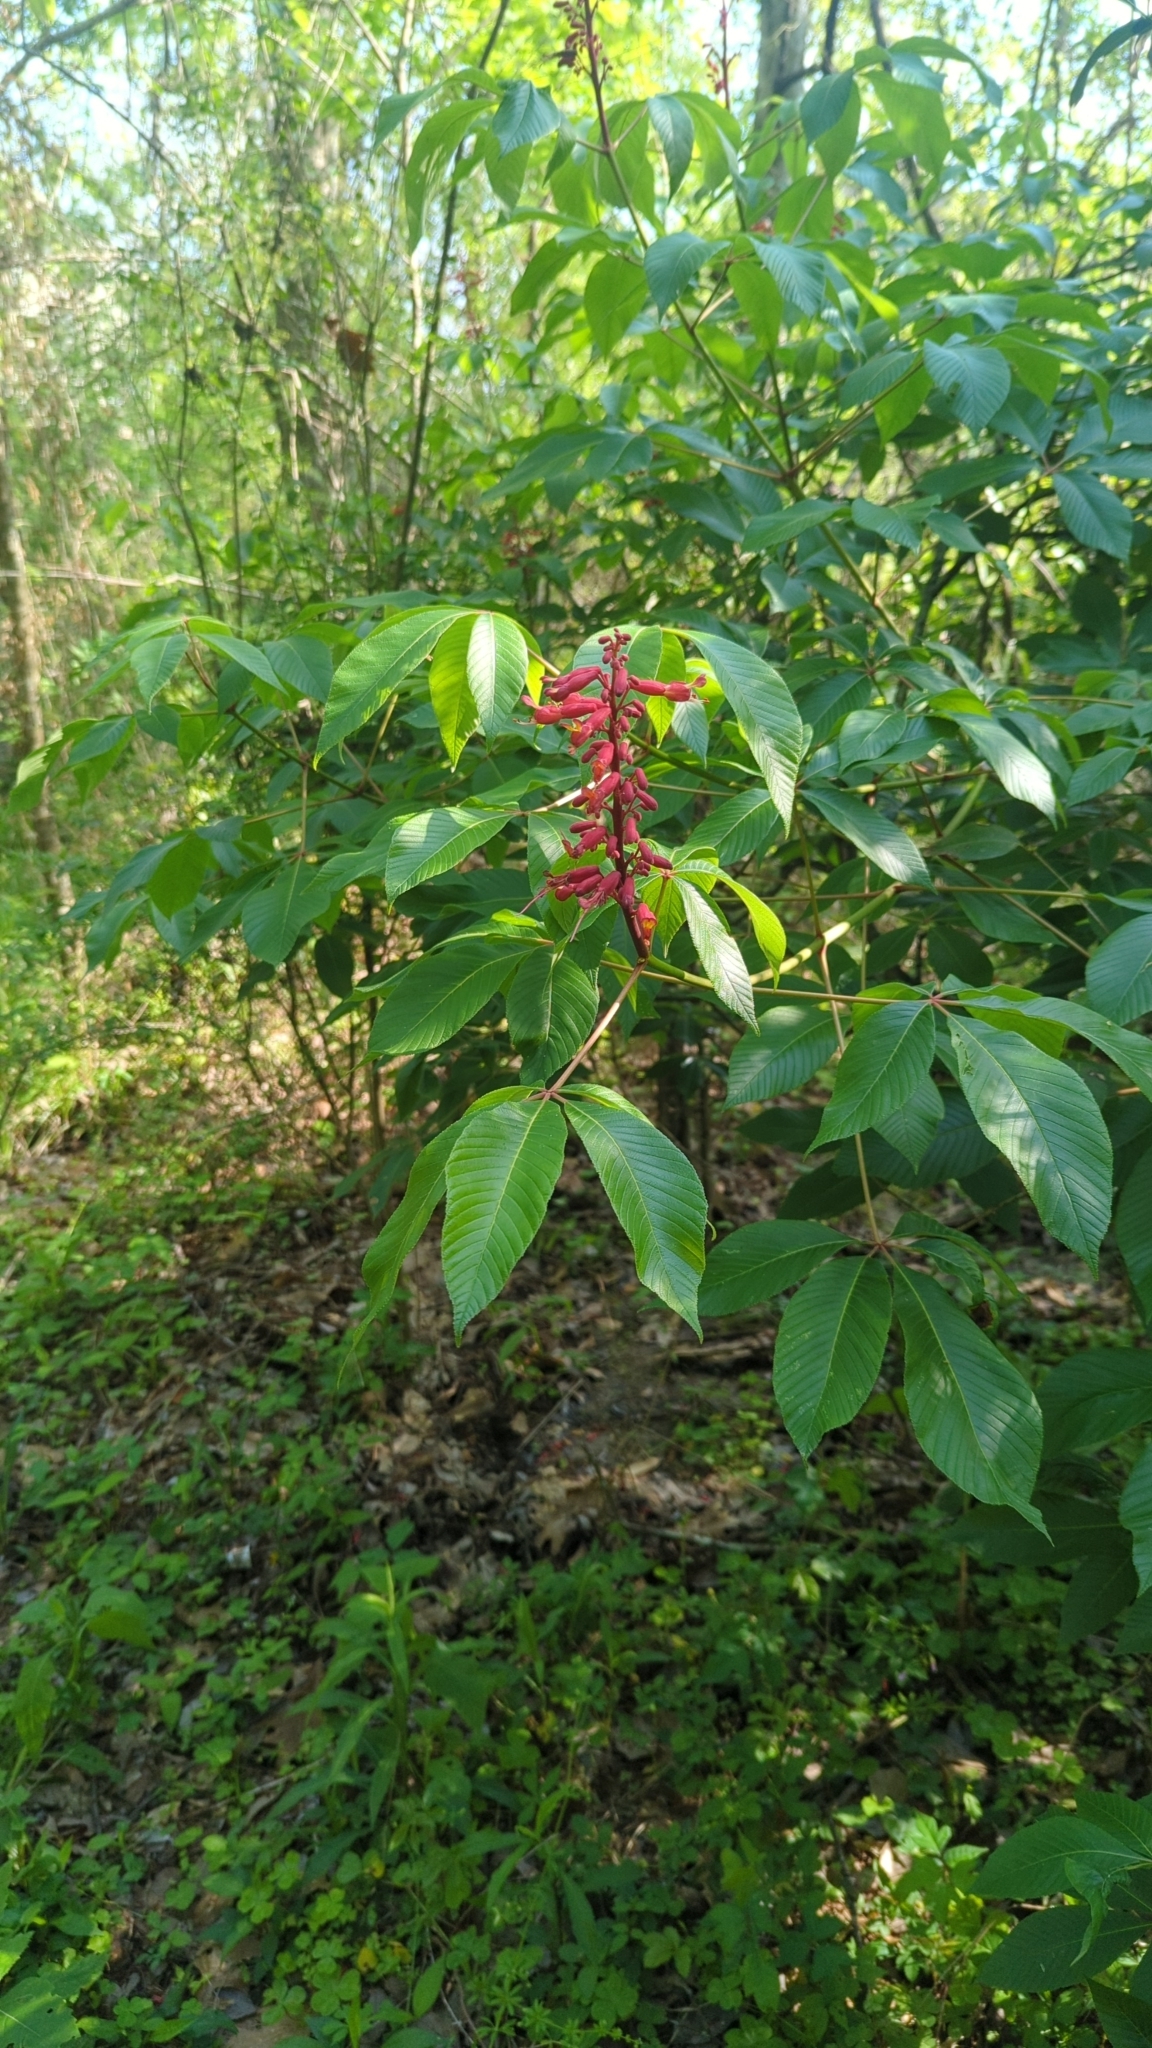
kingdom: Plantae
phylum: Tracheophyta
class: Magnoliopsida
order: Sapindales
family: Sapindaceae
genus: Aesculus
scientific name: Aesculus pavia
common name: Red buckeye
